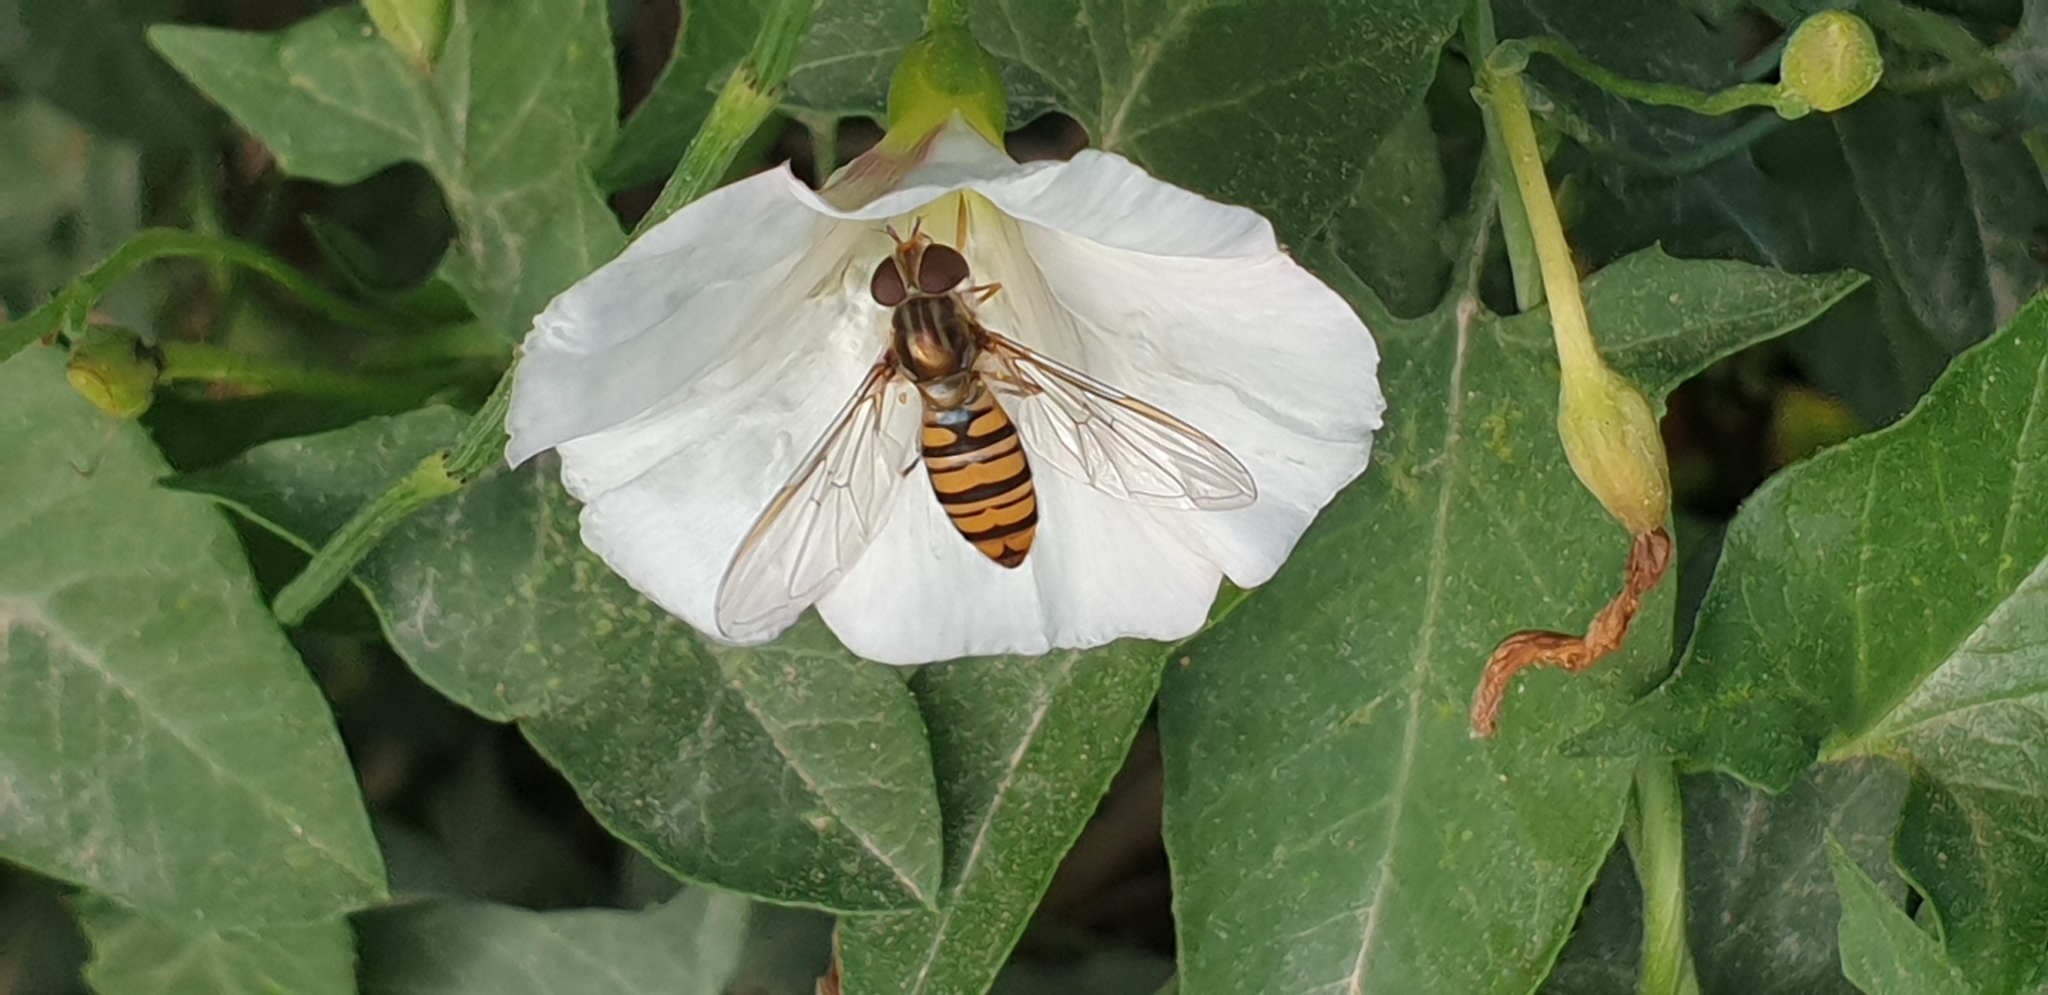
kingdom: Animalia
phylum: Arthropoda
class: Insecta
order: Diptera
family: Syrphidae
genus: Episyrphus
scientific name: Episyrphus balteatus
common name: Marmalade hoverfly
